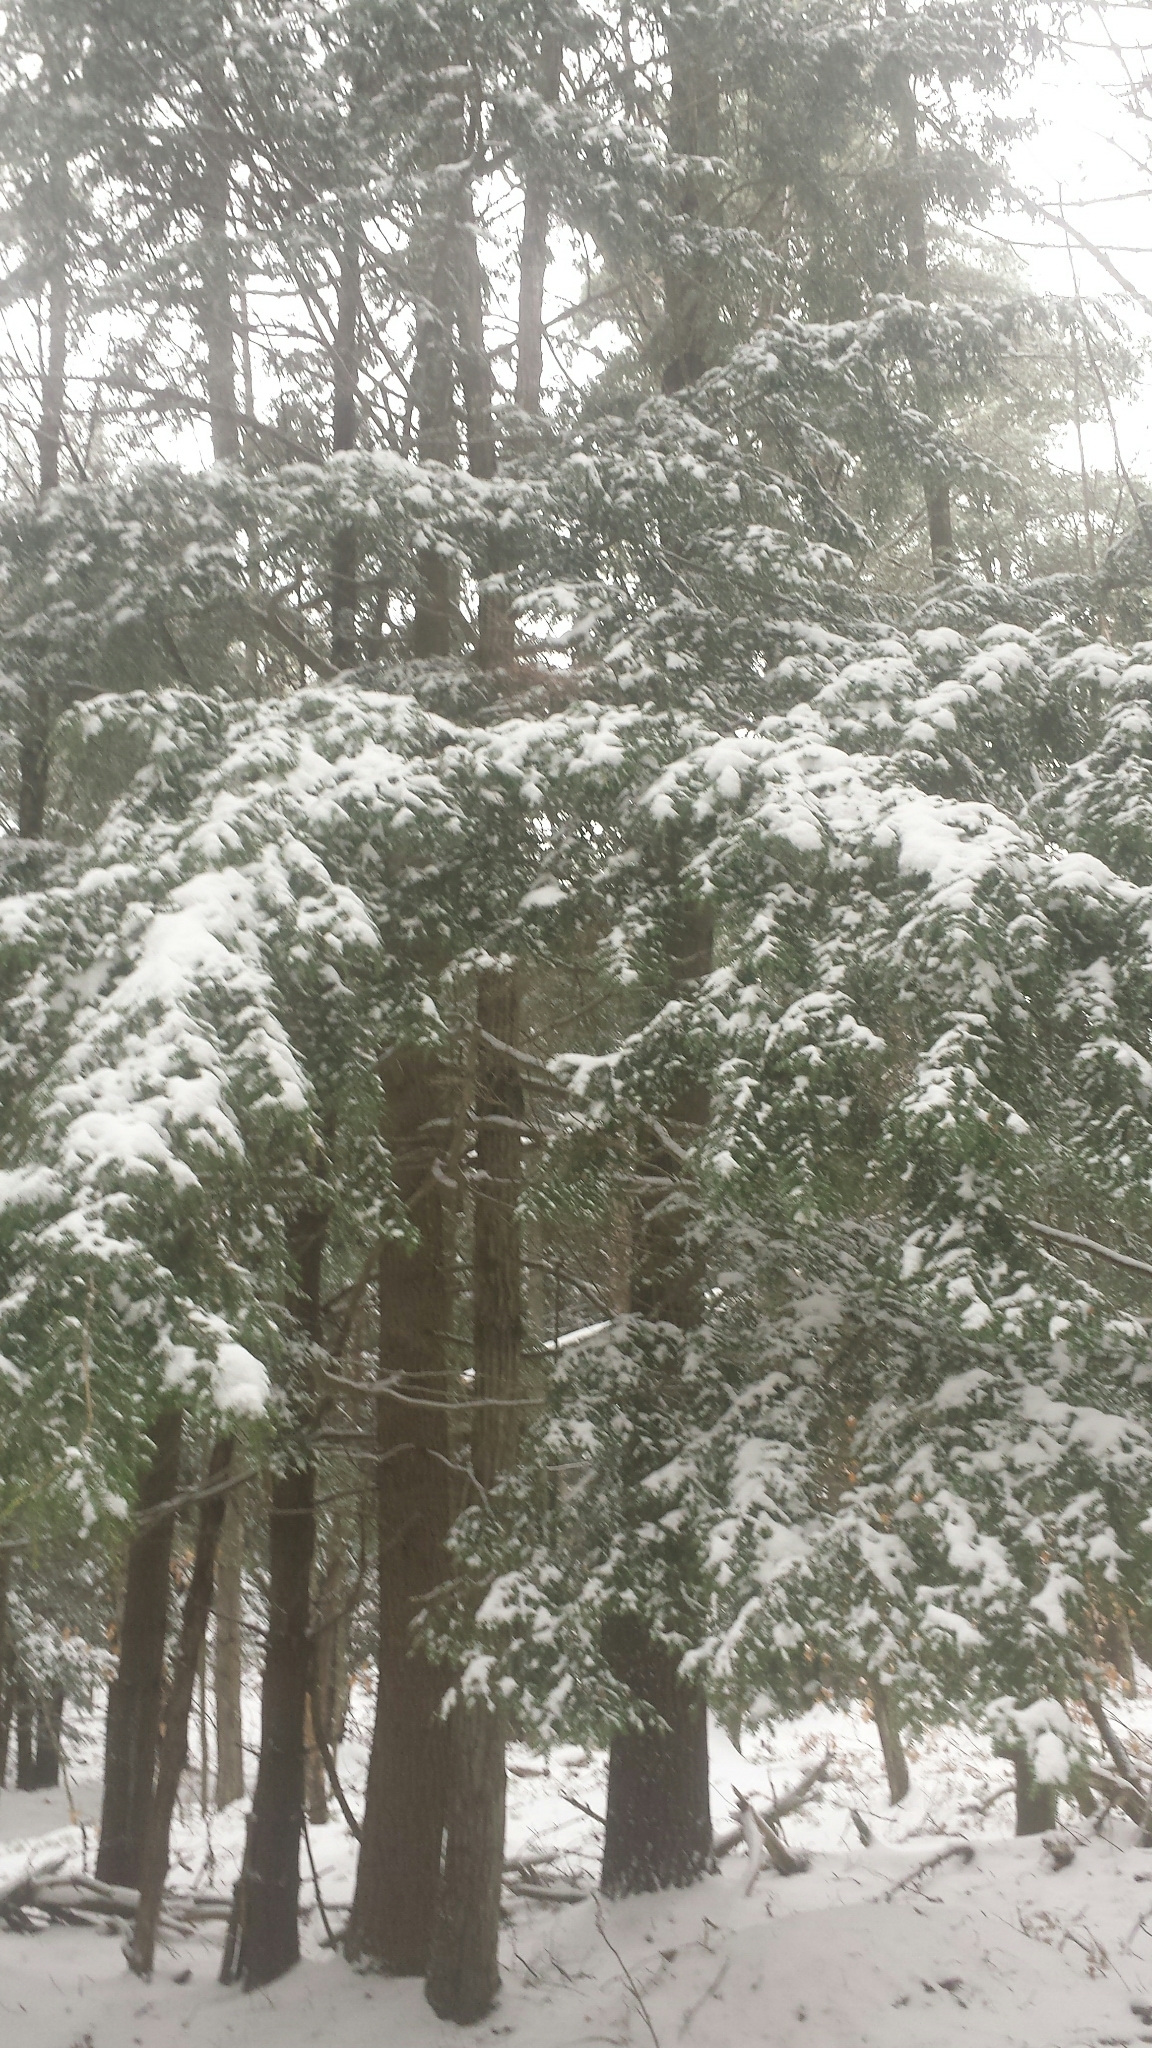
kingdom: Plantae
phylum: Tracheophyta
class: Pinopsida
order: Pinales
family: Pinaceae
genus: Tsuga
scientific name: Tsuga canadensis
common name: Eastern hemlock
